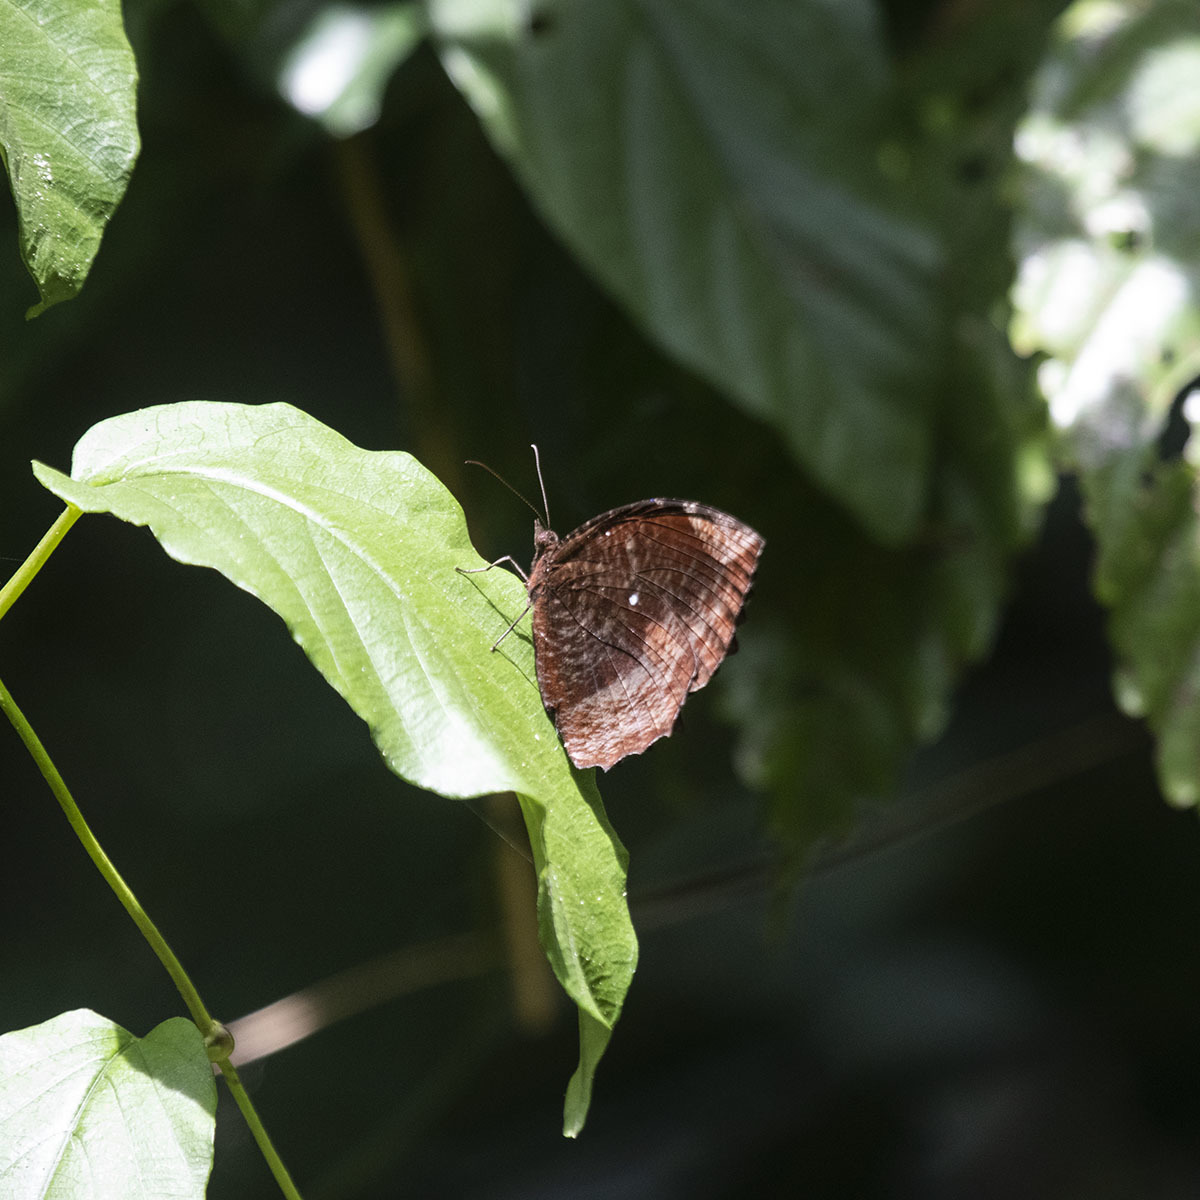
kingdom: Animalia
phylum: Arthropoda
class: Insecta
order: Lepidoptera
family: Nymphalidae
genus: Elymnias
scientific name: Elymnias hypermnestra
